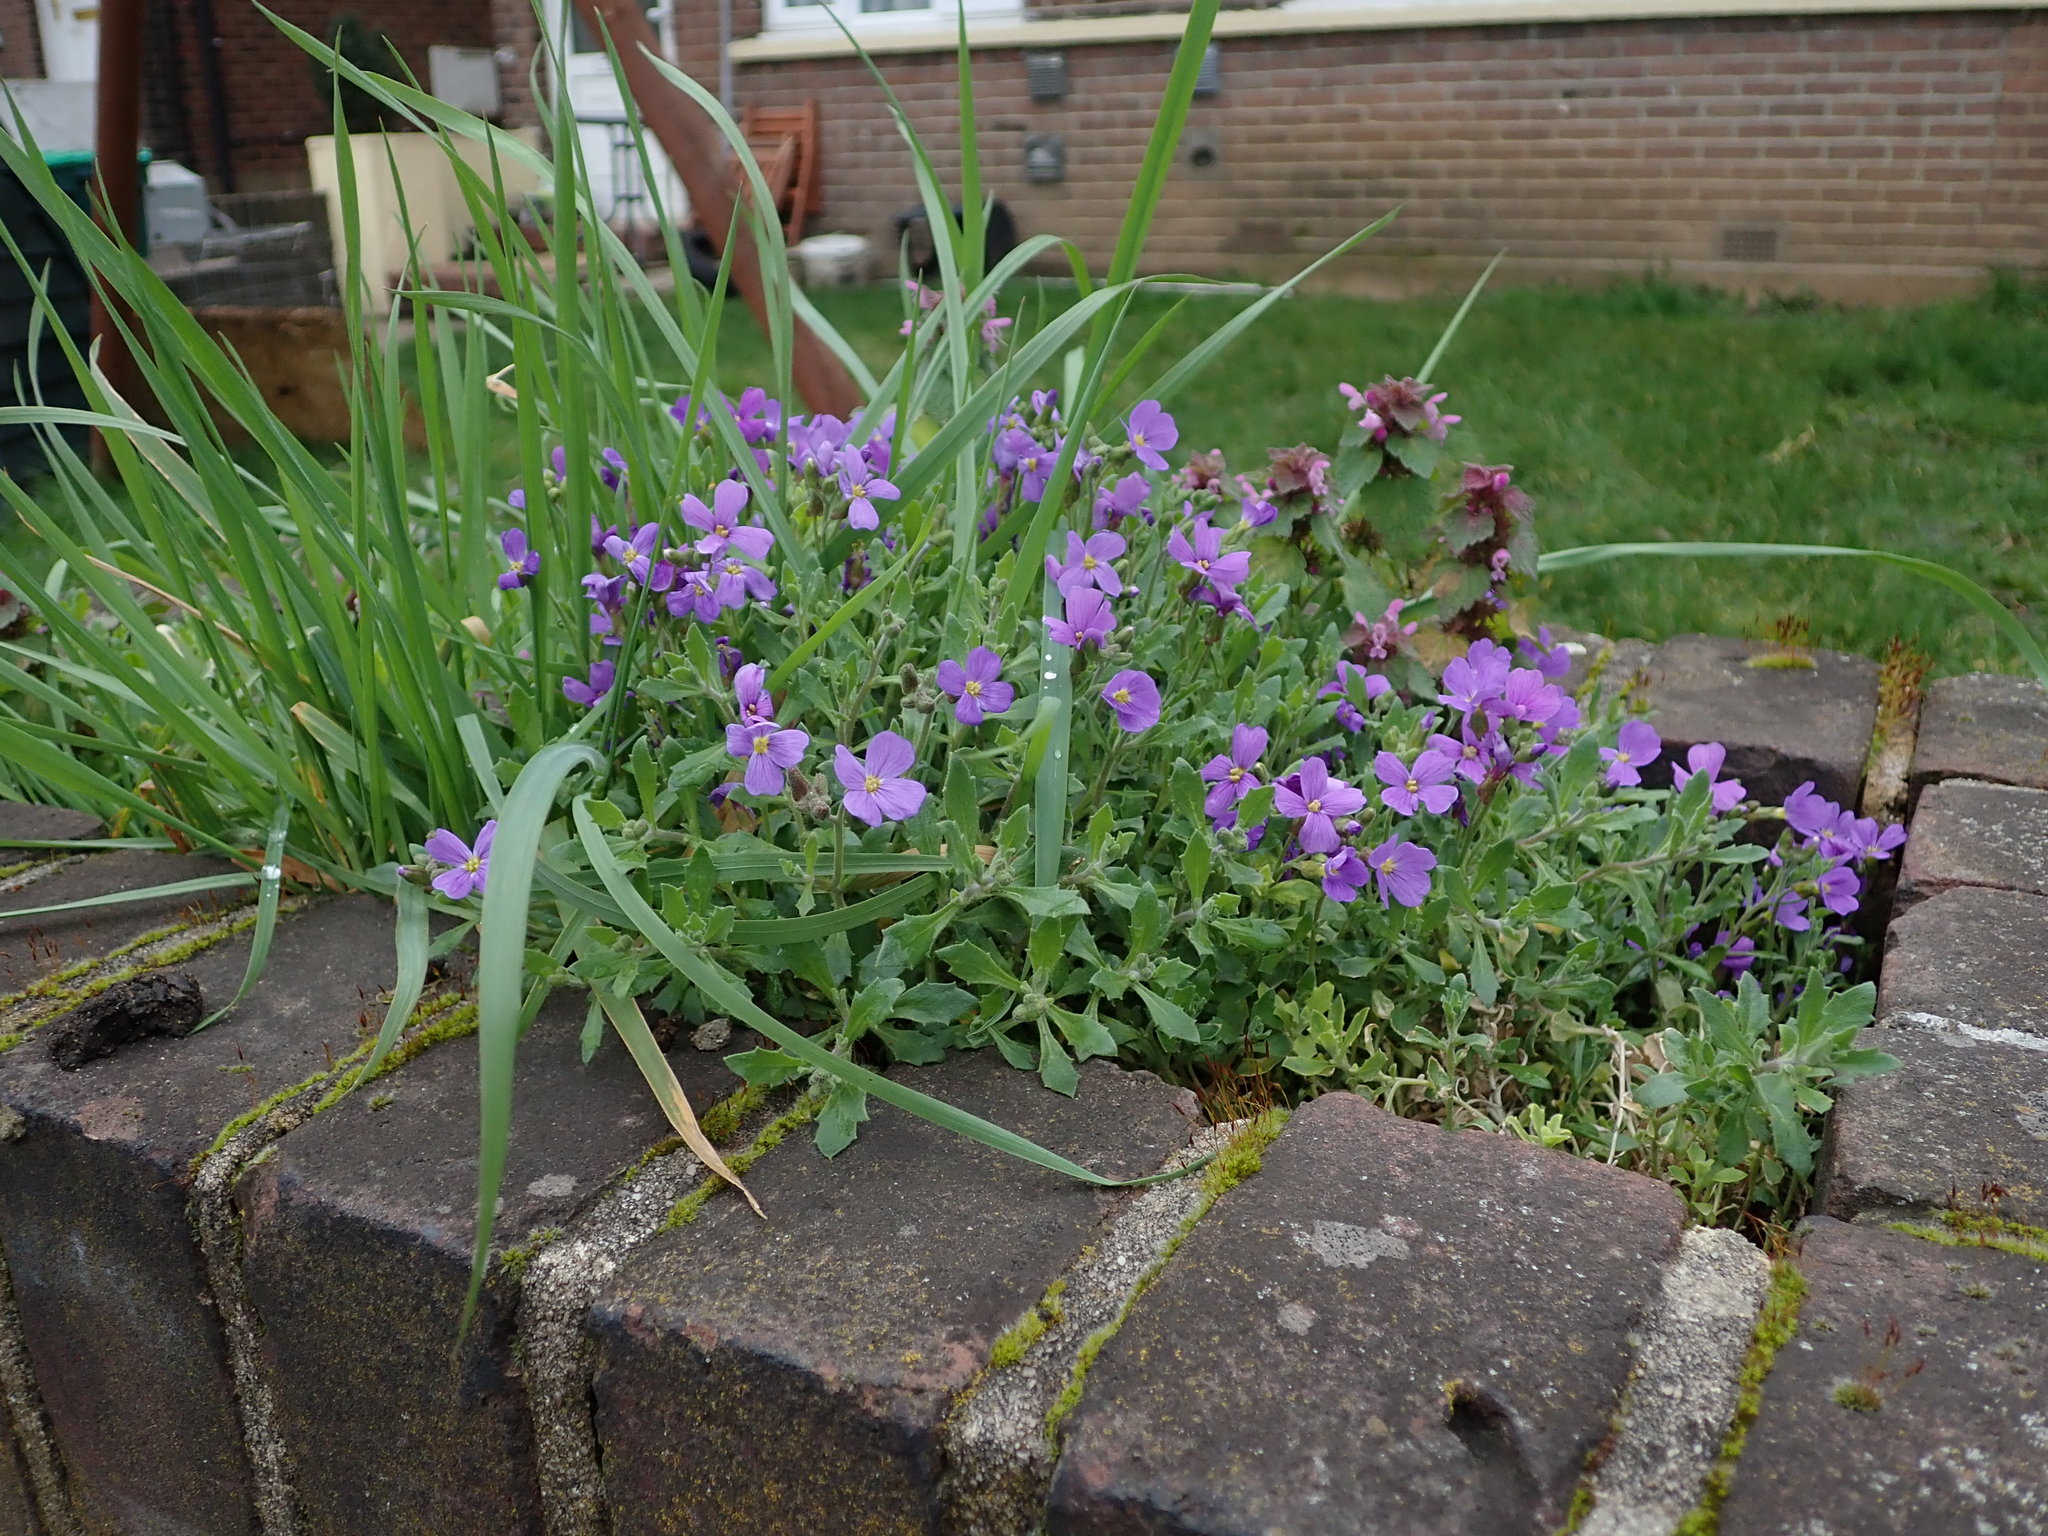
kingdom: Plantae
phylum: Tracheophyta
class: Magnoliopsida
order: Brassicales
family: Brassicaceae
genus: Aubrieta
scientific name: Aubrieta deltoidea
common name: Aubretia
